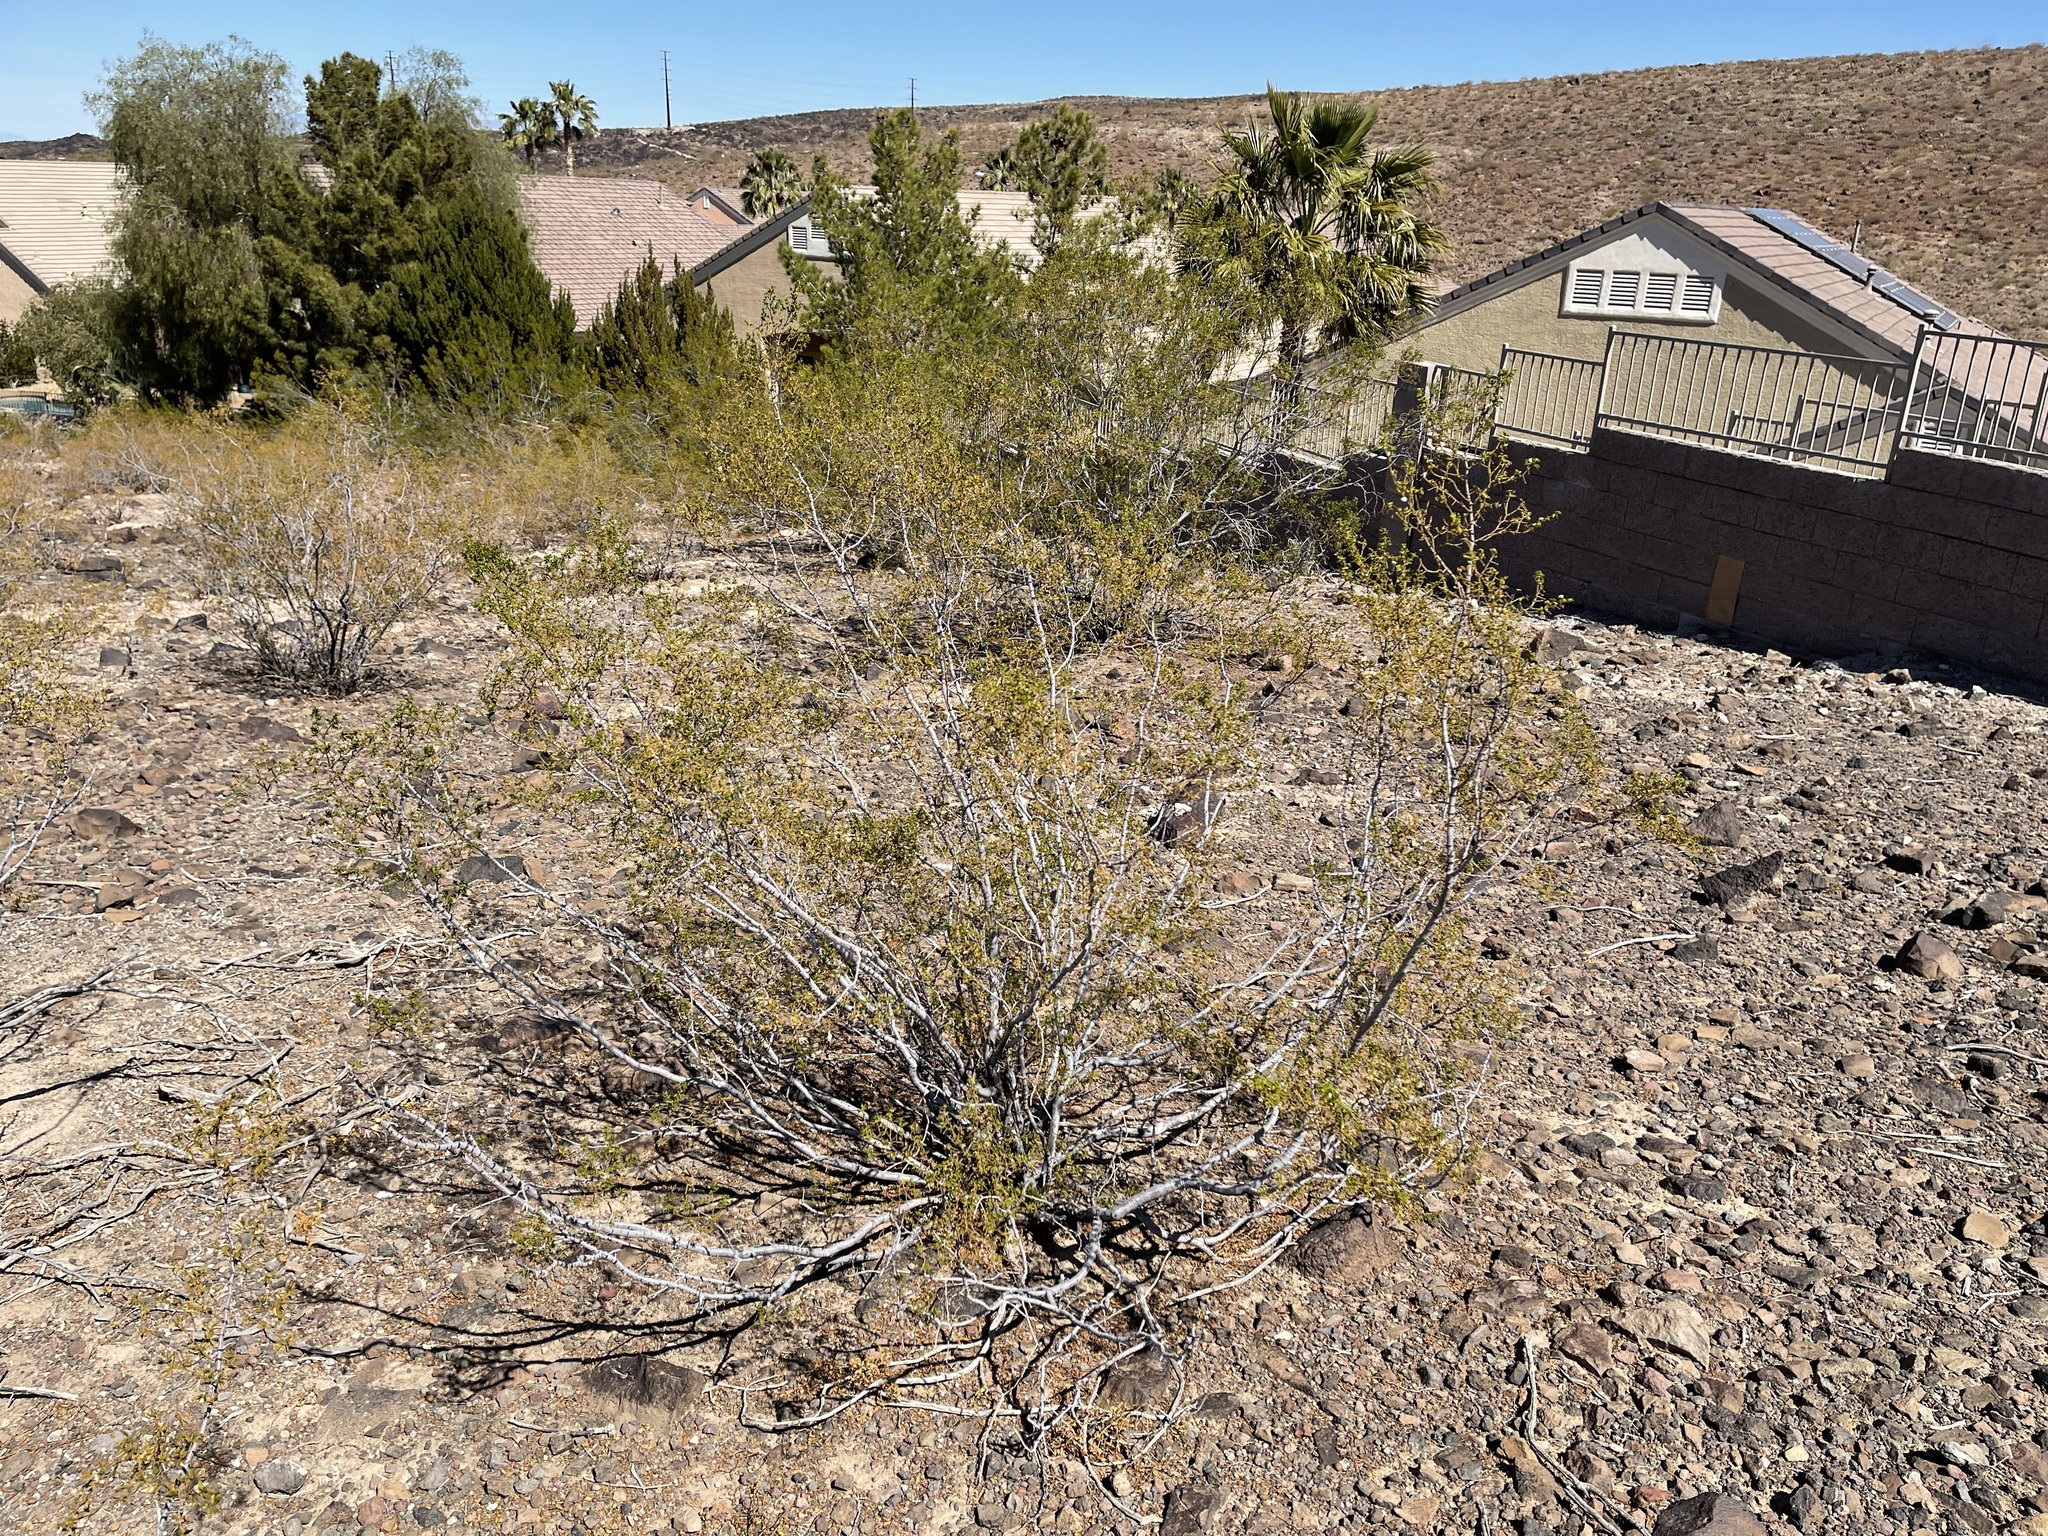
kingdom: Plantae
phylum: Tracheophyta
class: Magnoliopsida
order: Zygophyllales
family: Zygophyllaceae
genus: Larrea
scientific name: Larrea tridentata
